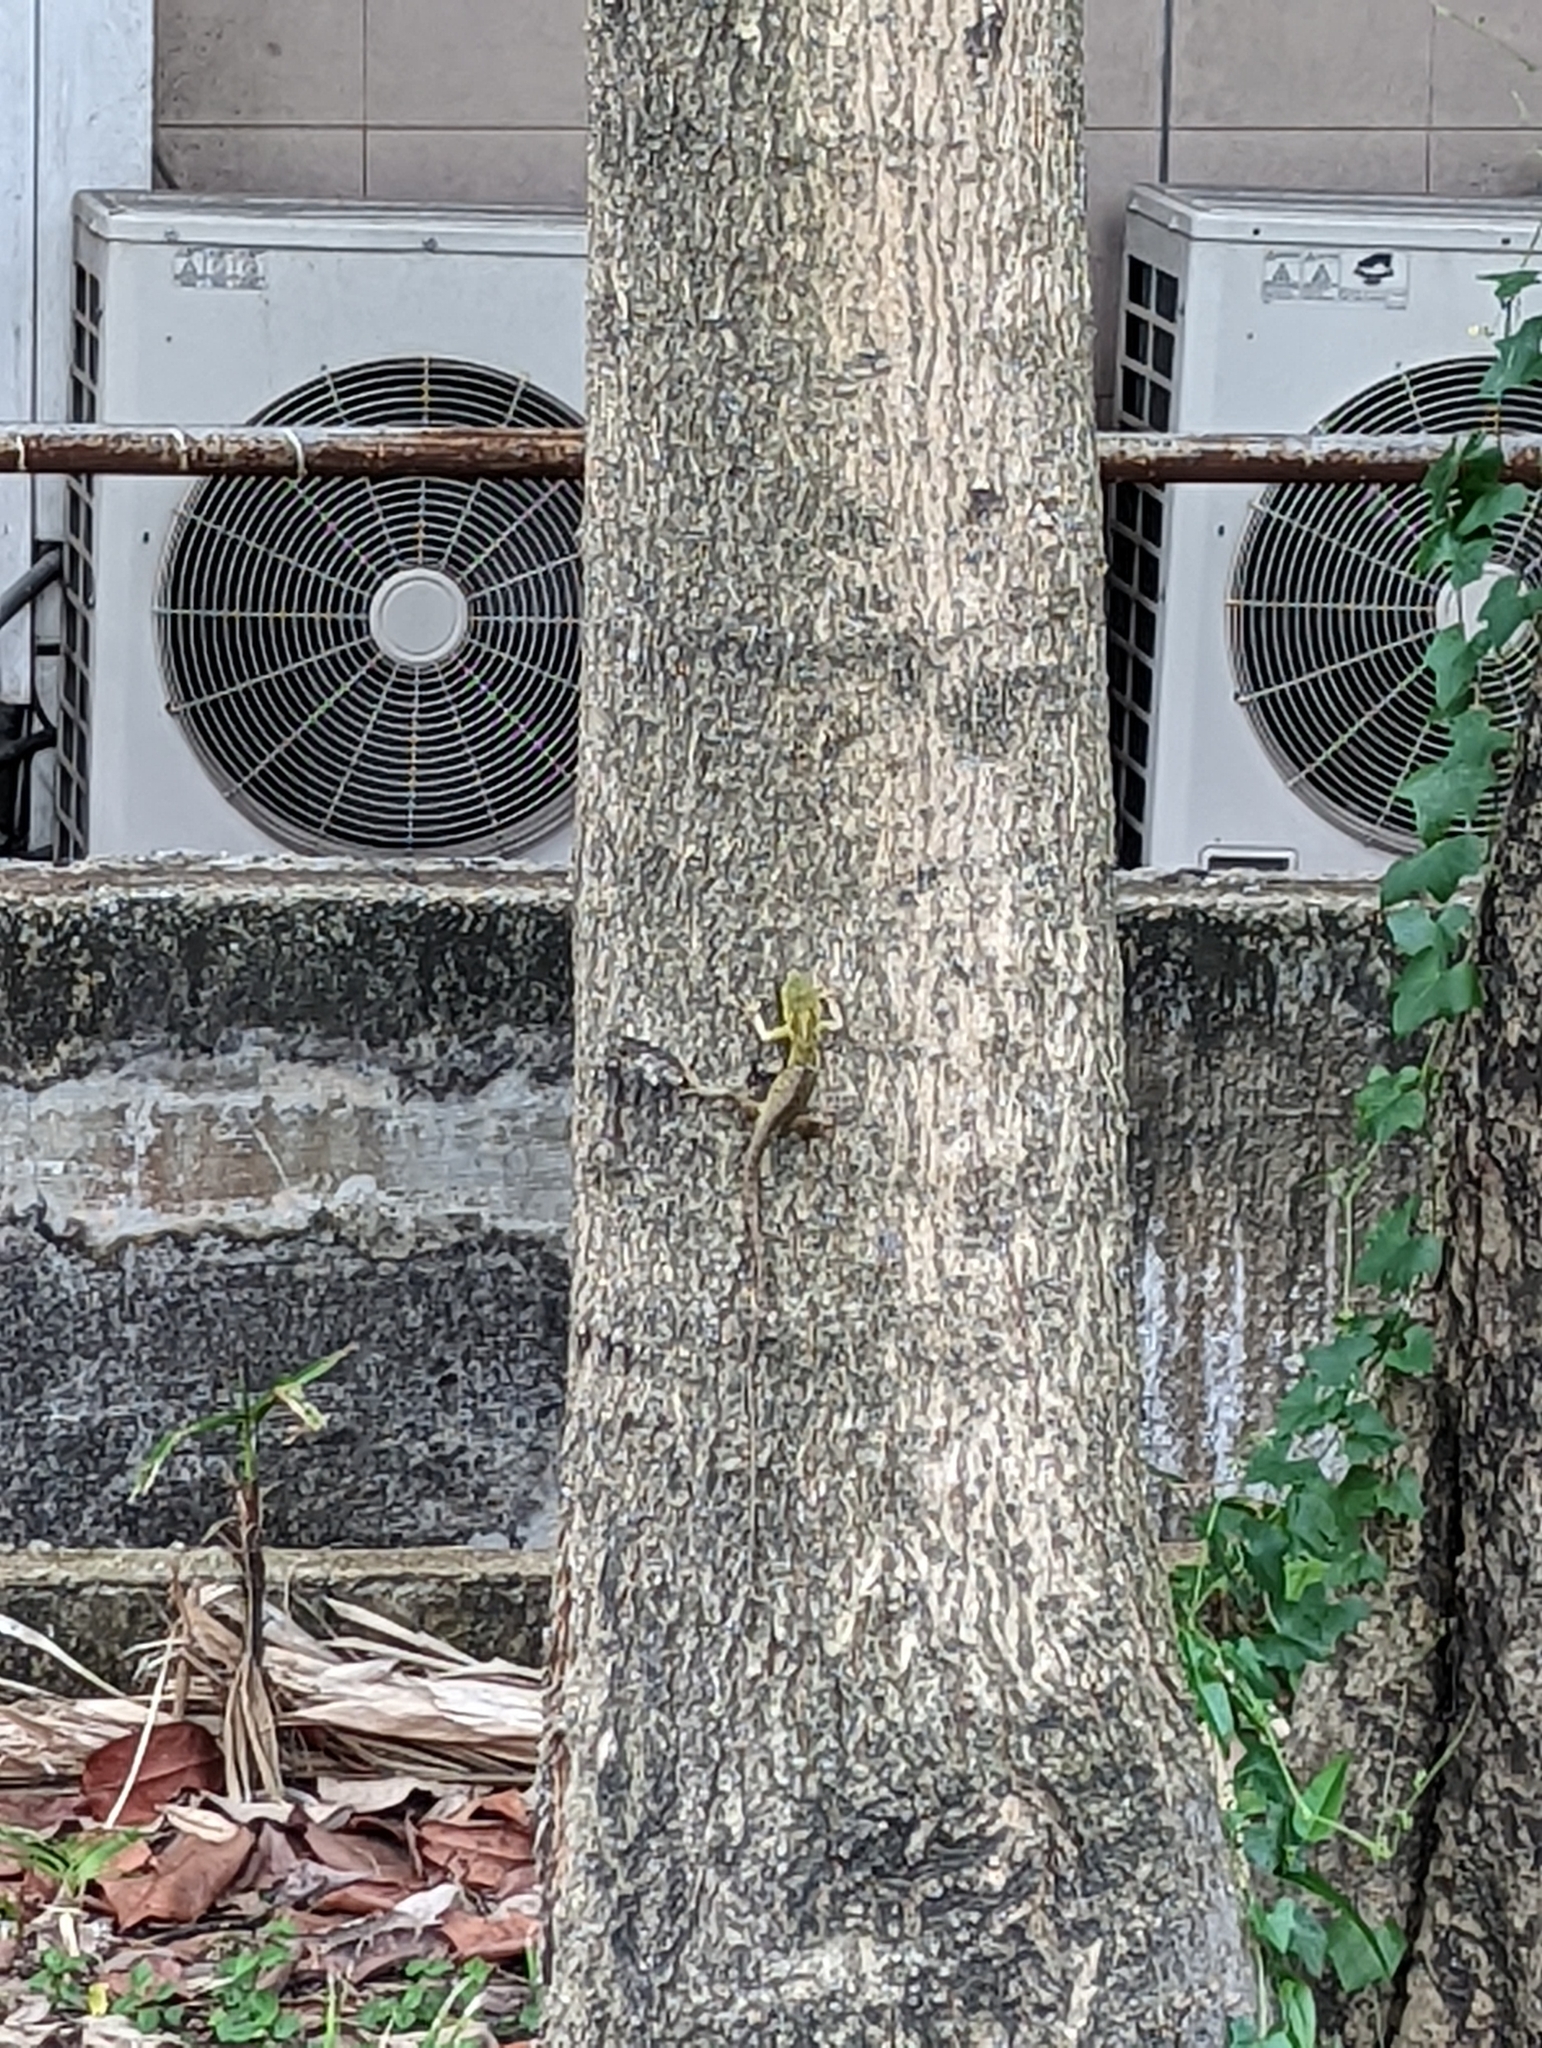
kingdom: Animalia
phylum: Chordata
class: Squamata
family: Agamidae
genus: Calotes
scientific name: Calotes versicolor
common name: Oriental garden lizard
